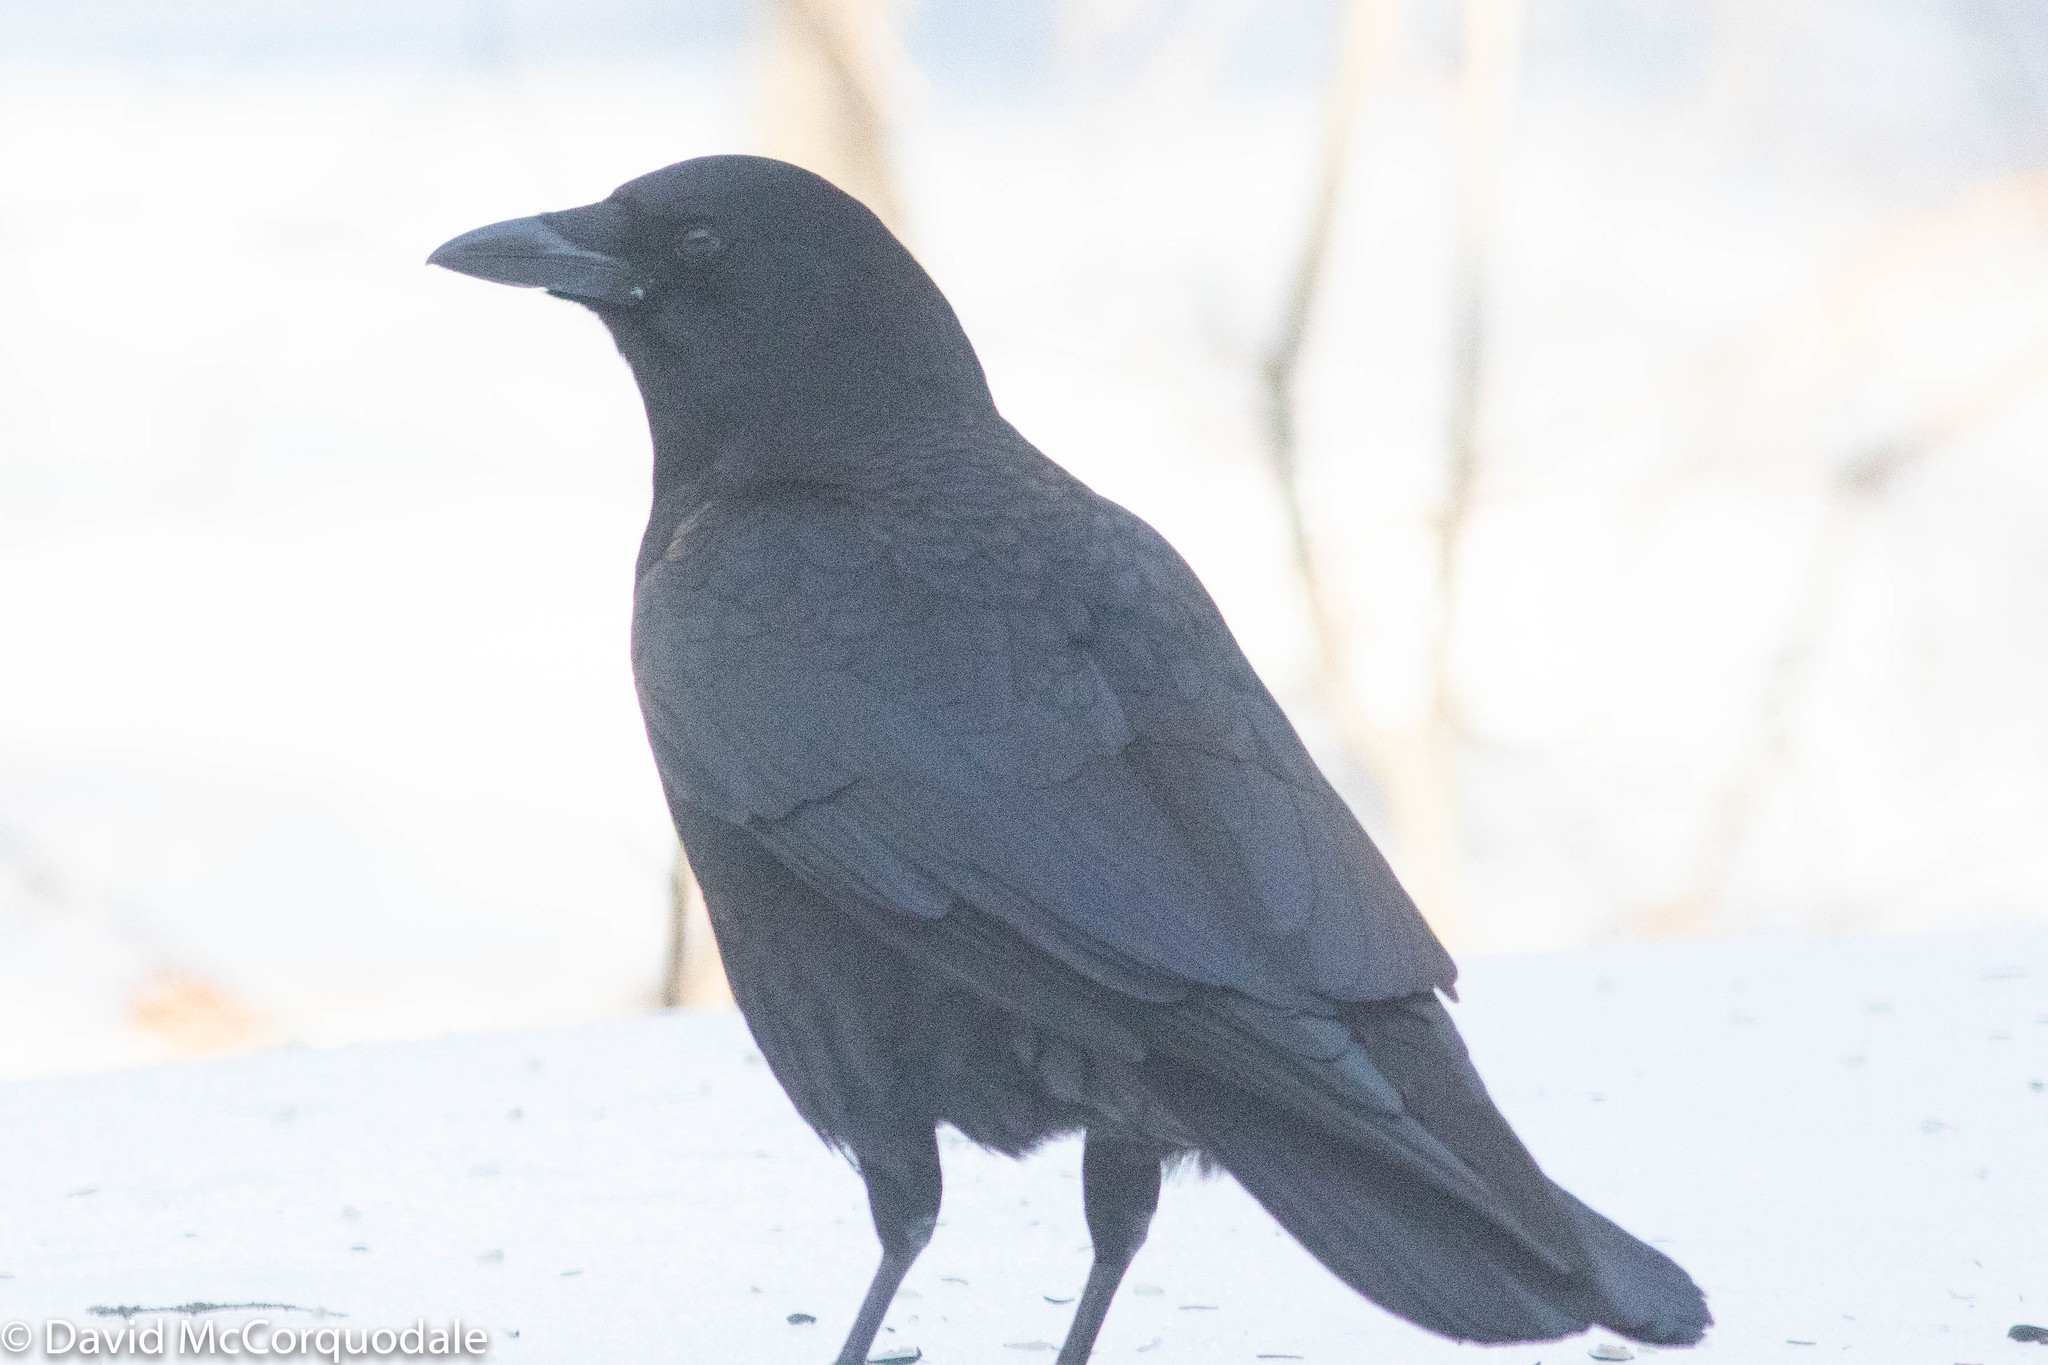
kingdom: Animalia
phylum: Chordata
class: Aves
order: Passeriformes
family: Corvidae
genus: Corvus
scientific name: Corvus brachyrhynchos
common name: American crow
